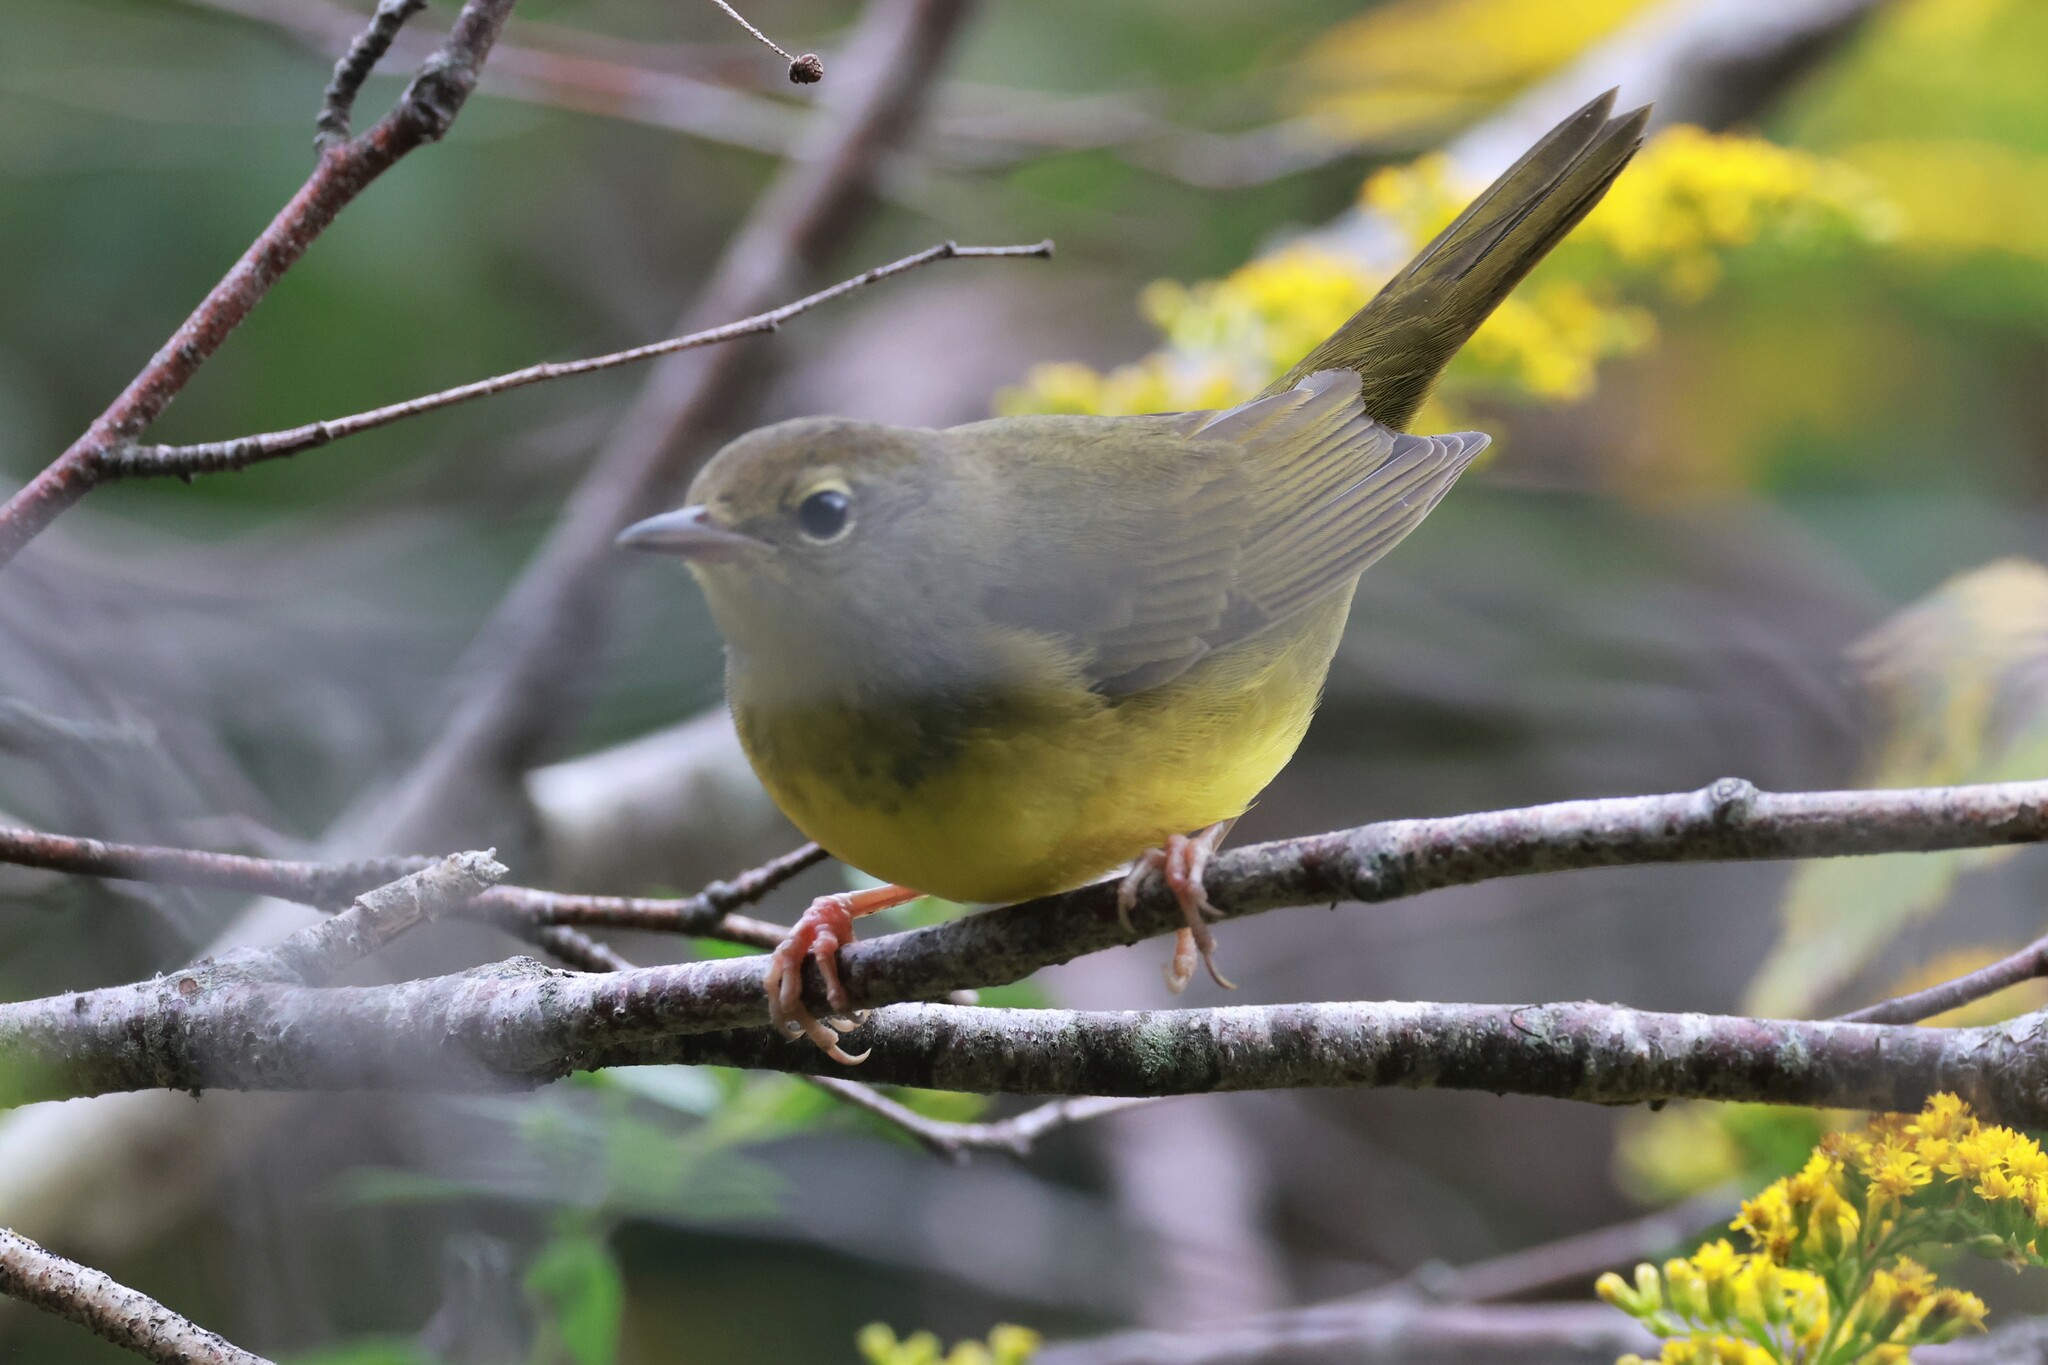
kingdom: Animalia
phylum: Chordata
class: Aves
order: Passeriformes
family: Parulidae
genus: Geothlypis
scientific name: Geothlypis philadelphia
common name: Mourning warbler
